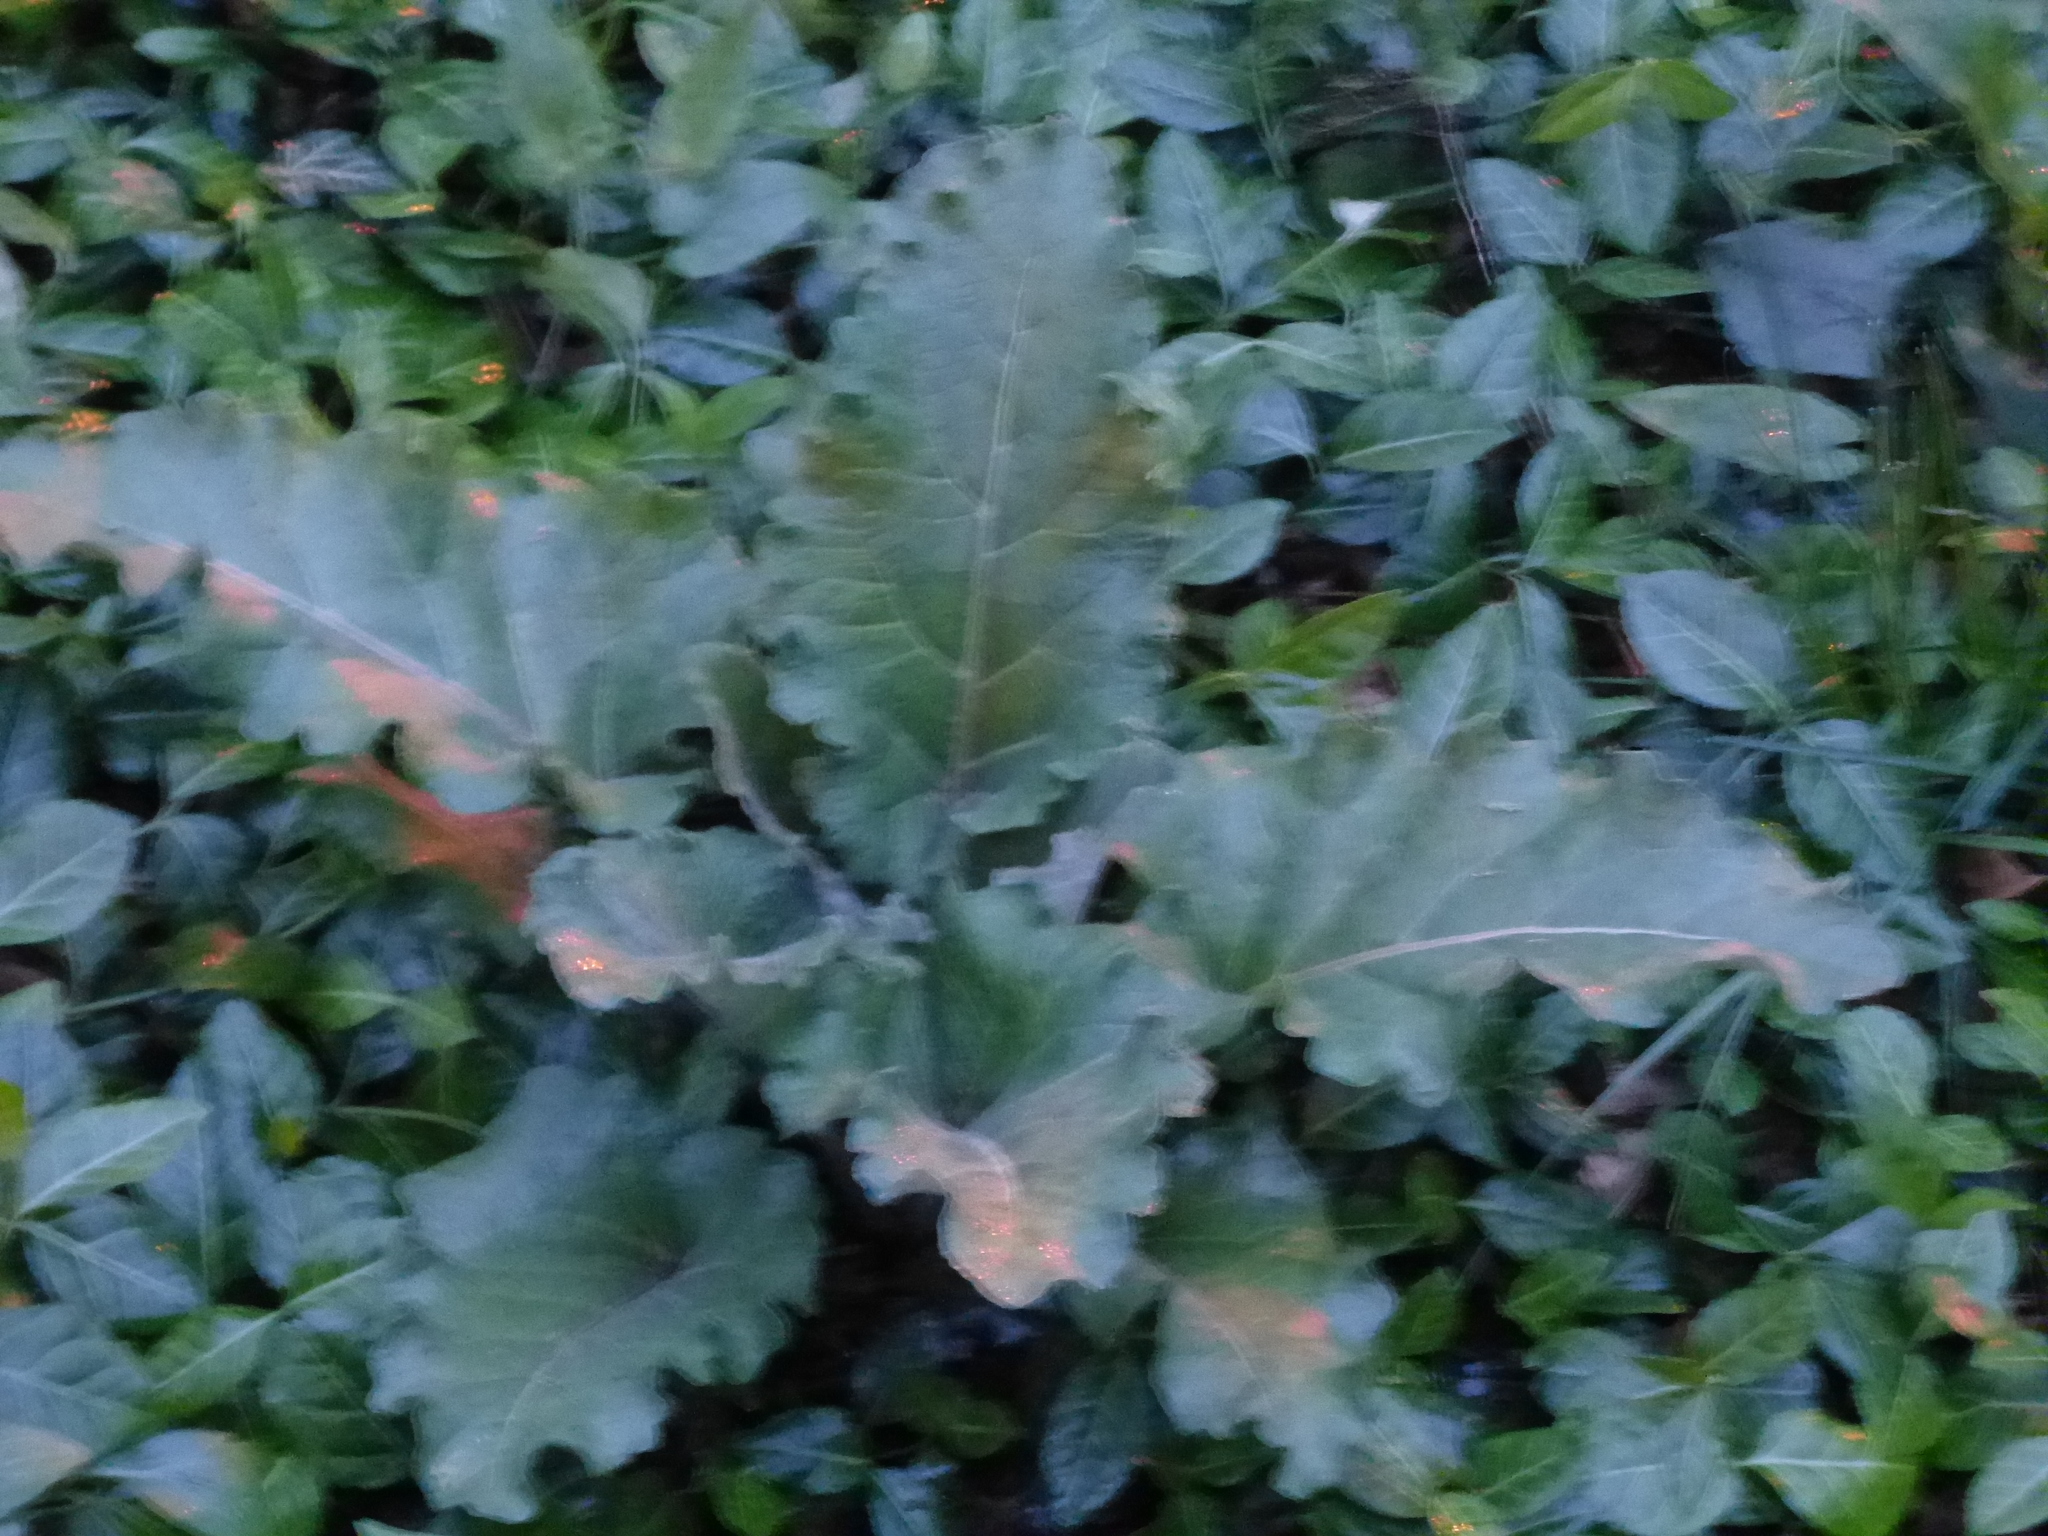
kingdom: Plantae
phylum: Tracheophyta
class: Magnoliopsida
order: Asterales
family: Asteraceae
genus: Arctium
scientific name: Arctium
